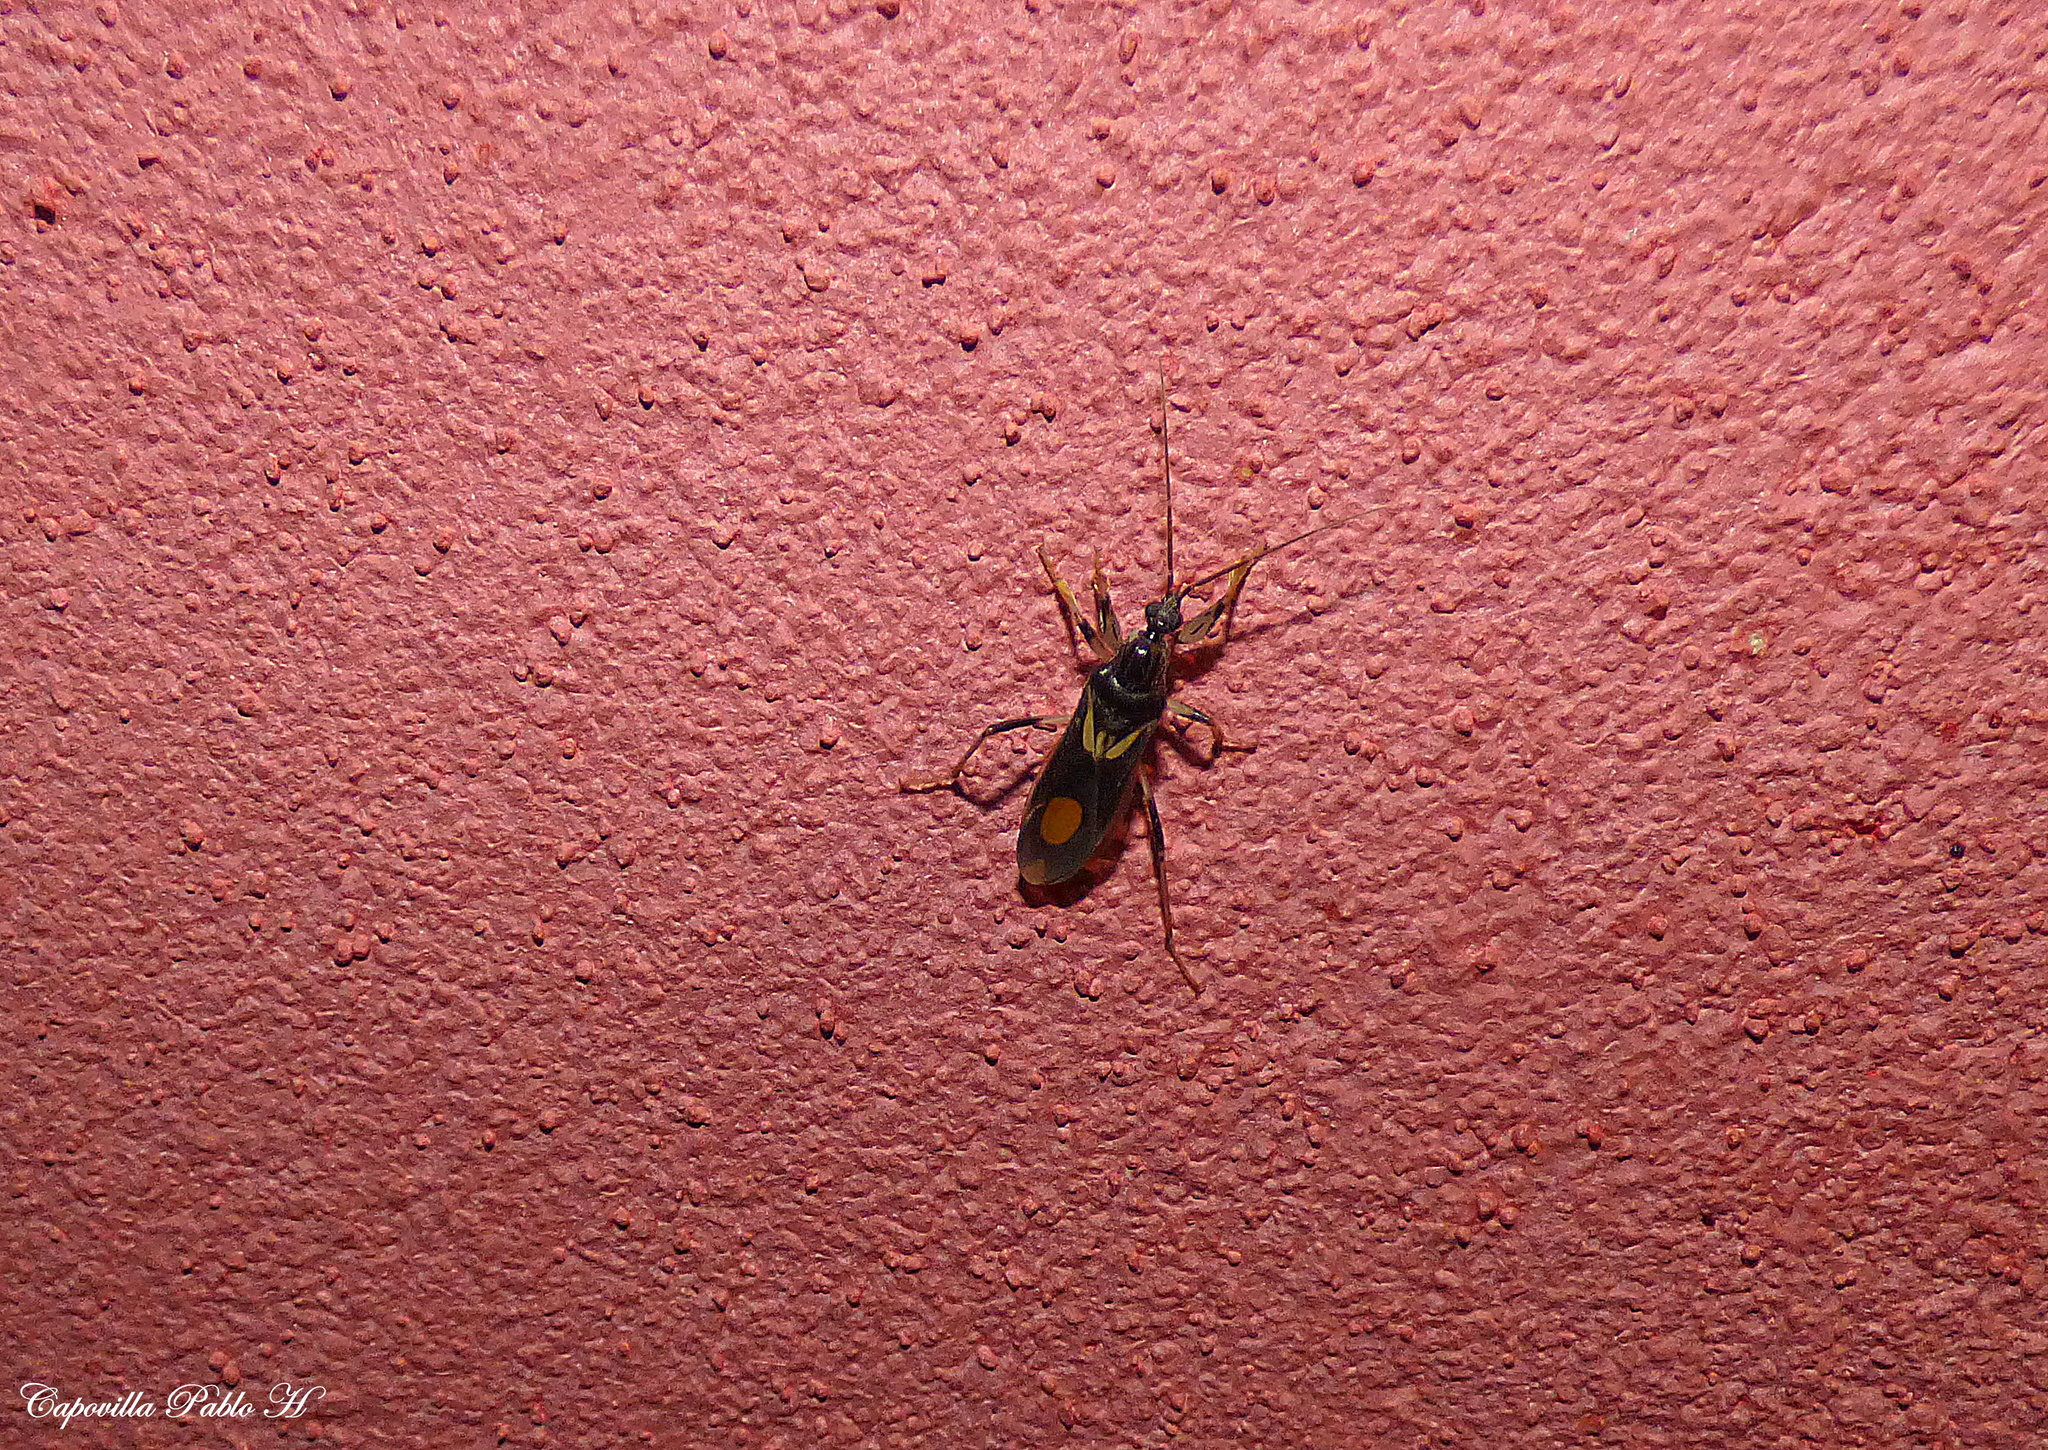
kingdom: Animalia
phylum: Arthropoda
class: Insecta
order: Hemiptera
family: Reduviidae
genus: Rasahus
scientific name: Rasahus hamatus
